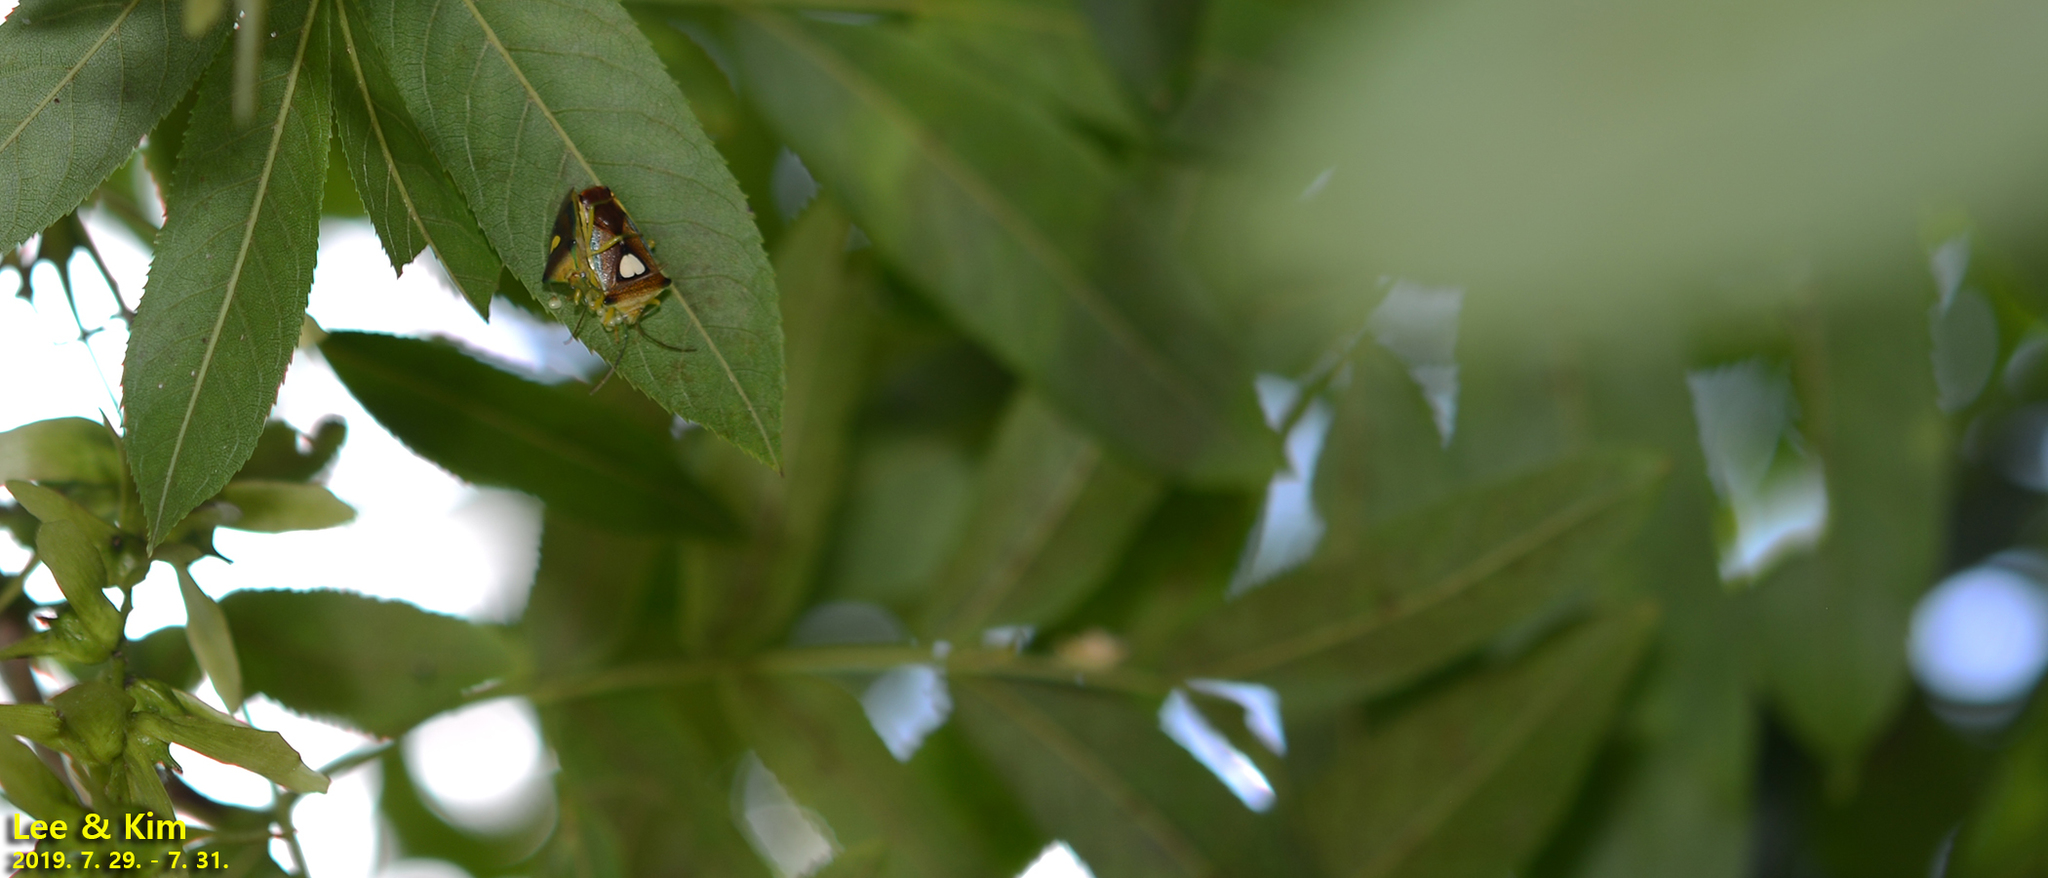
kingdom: Animalia
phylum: Arthropoda
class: Insecta
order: Hemiptera
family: Acanthosomatidae
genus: Sastragala
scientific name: Sastragala esakii
